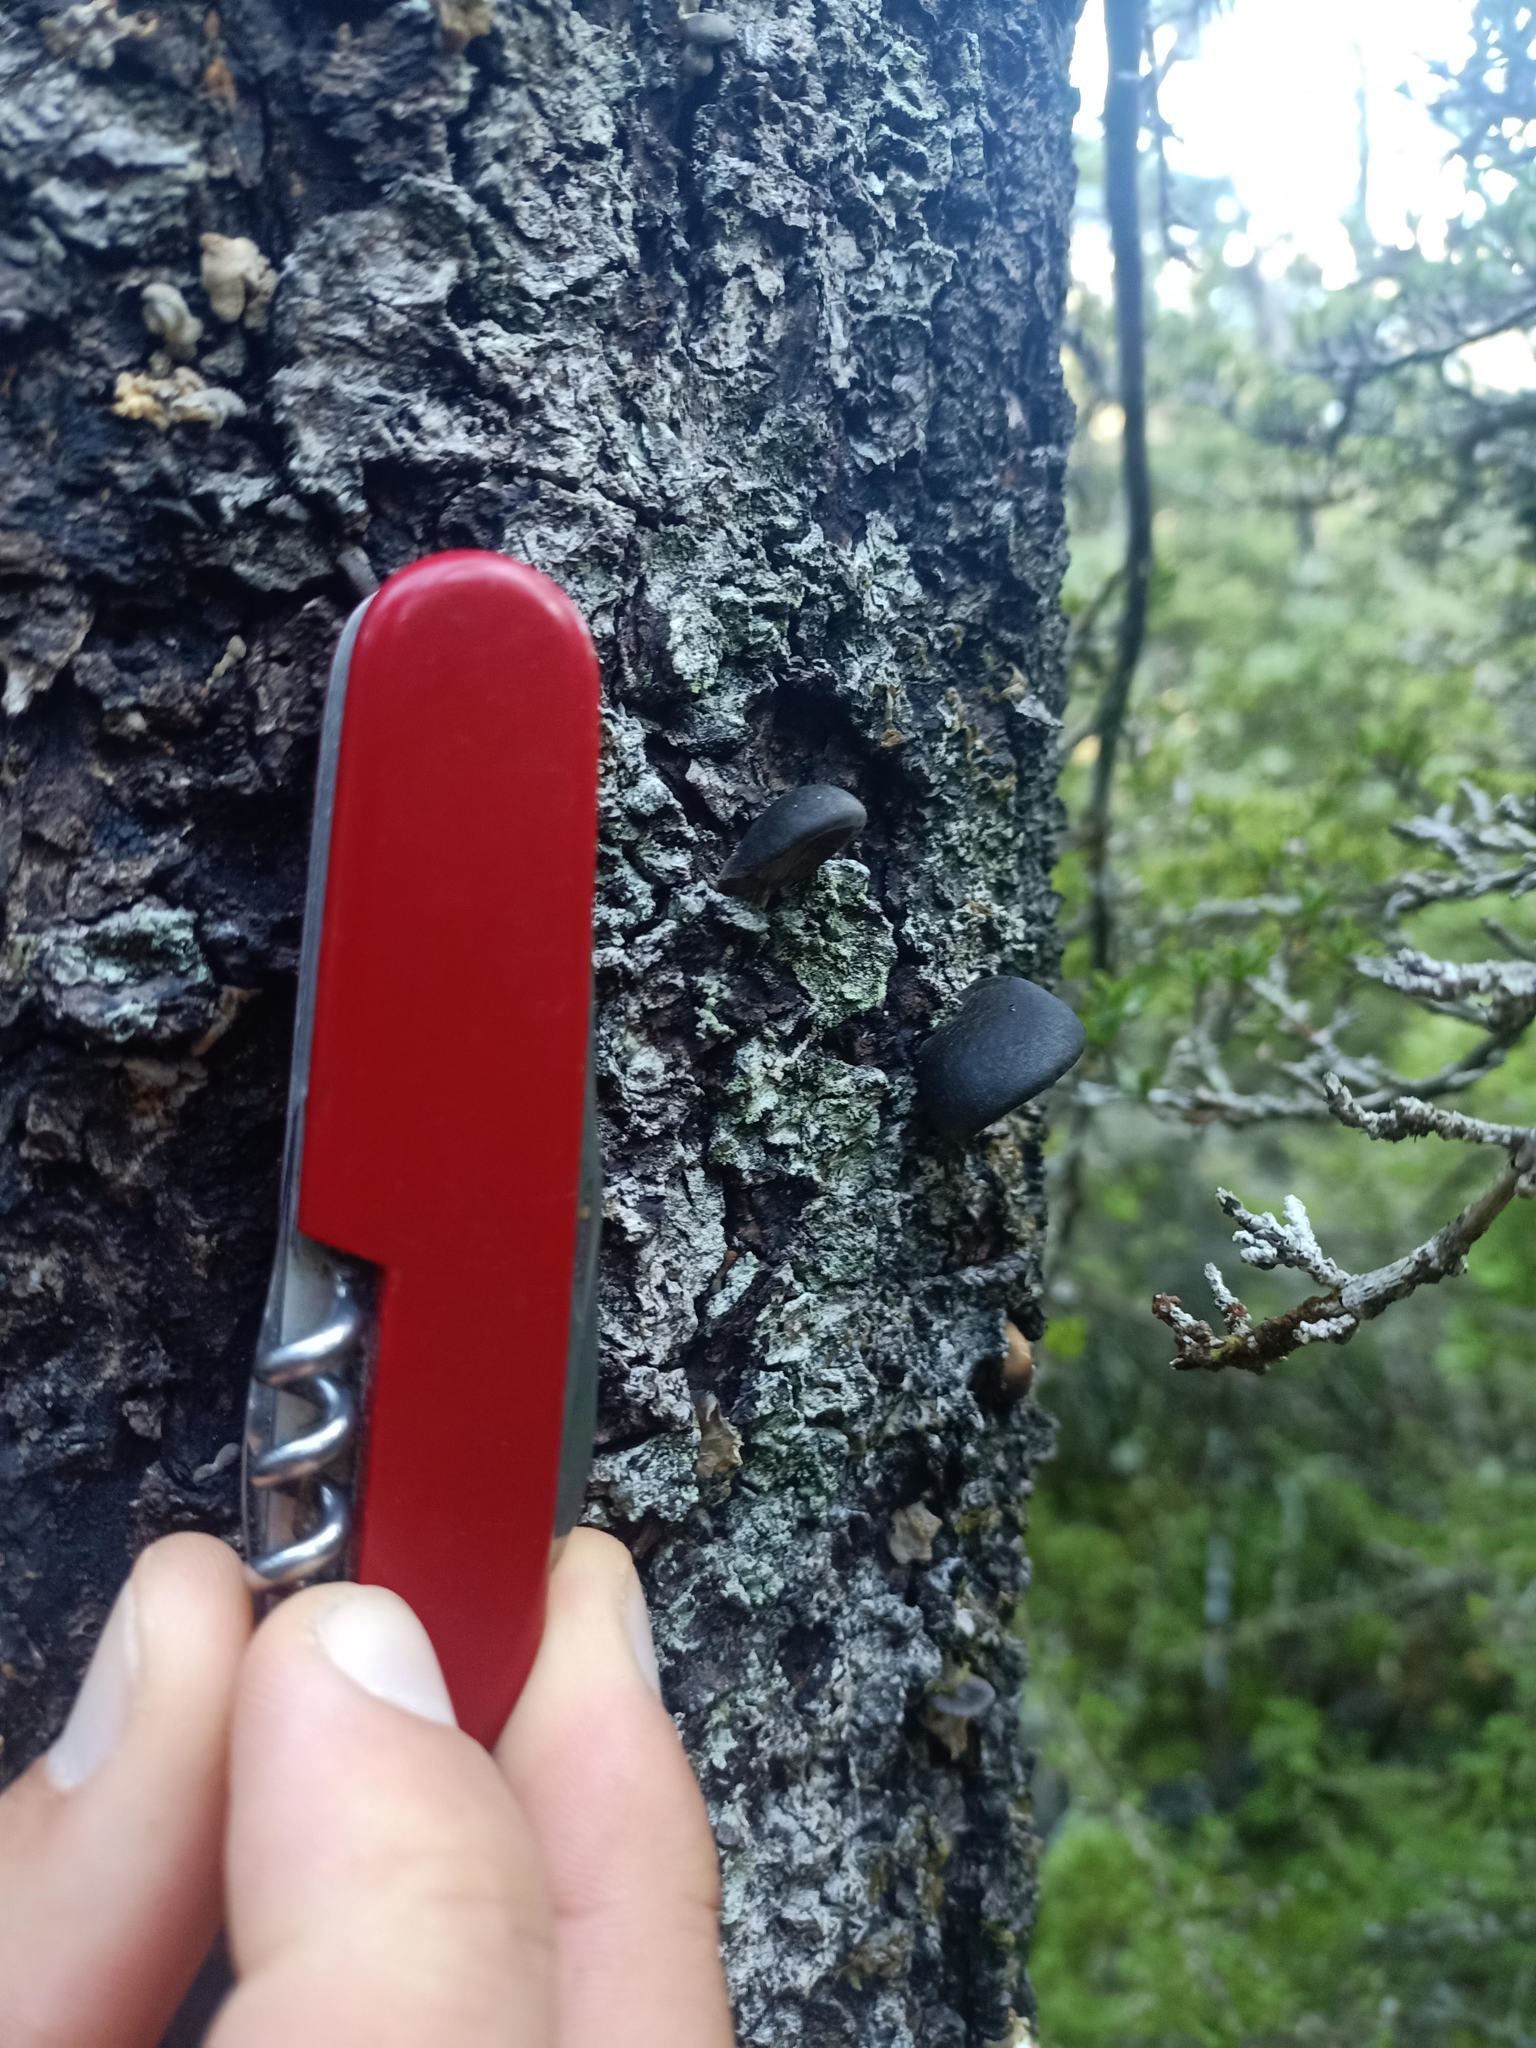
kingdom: Fungi
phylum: Basidiomycota
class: Agaricomycetes
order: Agaricales
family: Pleurotaceae
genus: Pleurotus
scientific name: Pleurotus purpureo-olivaceus
